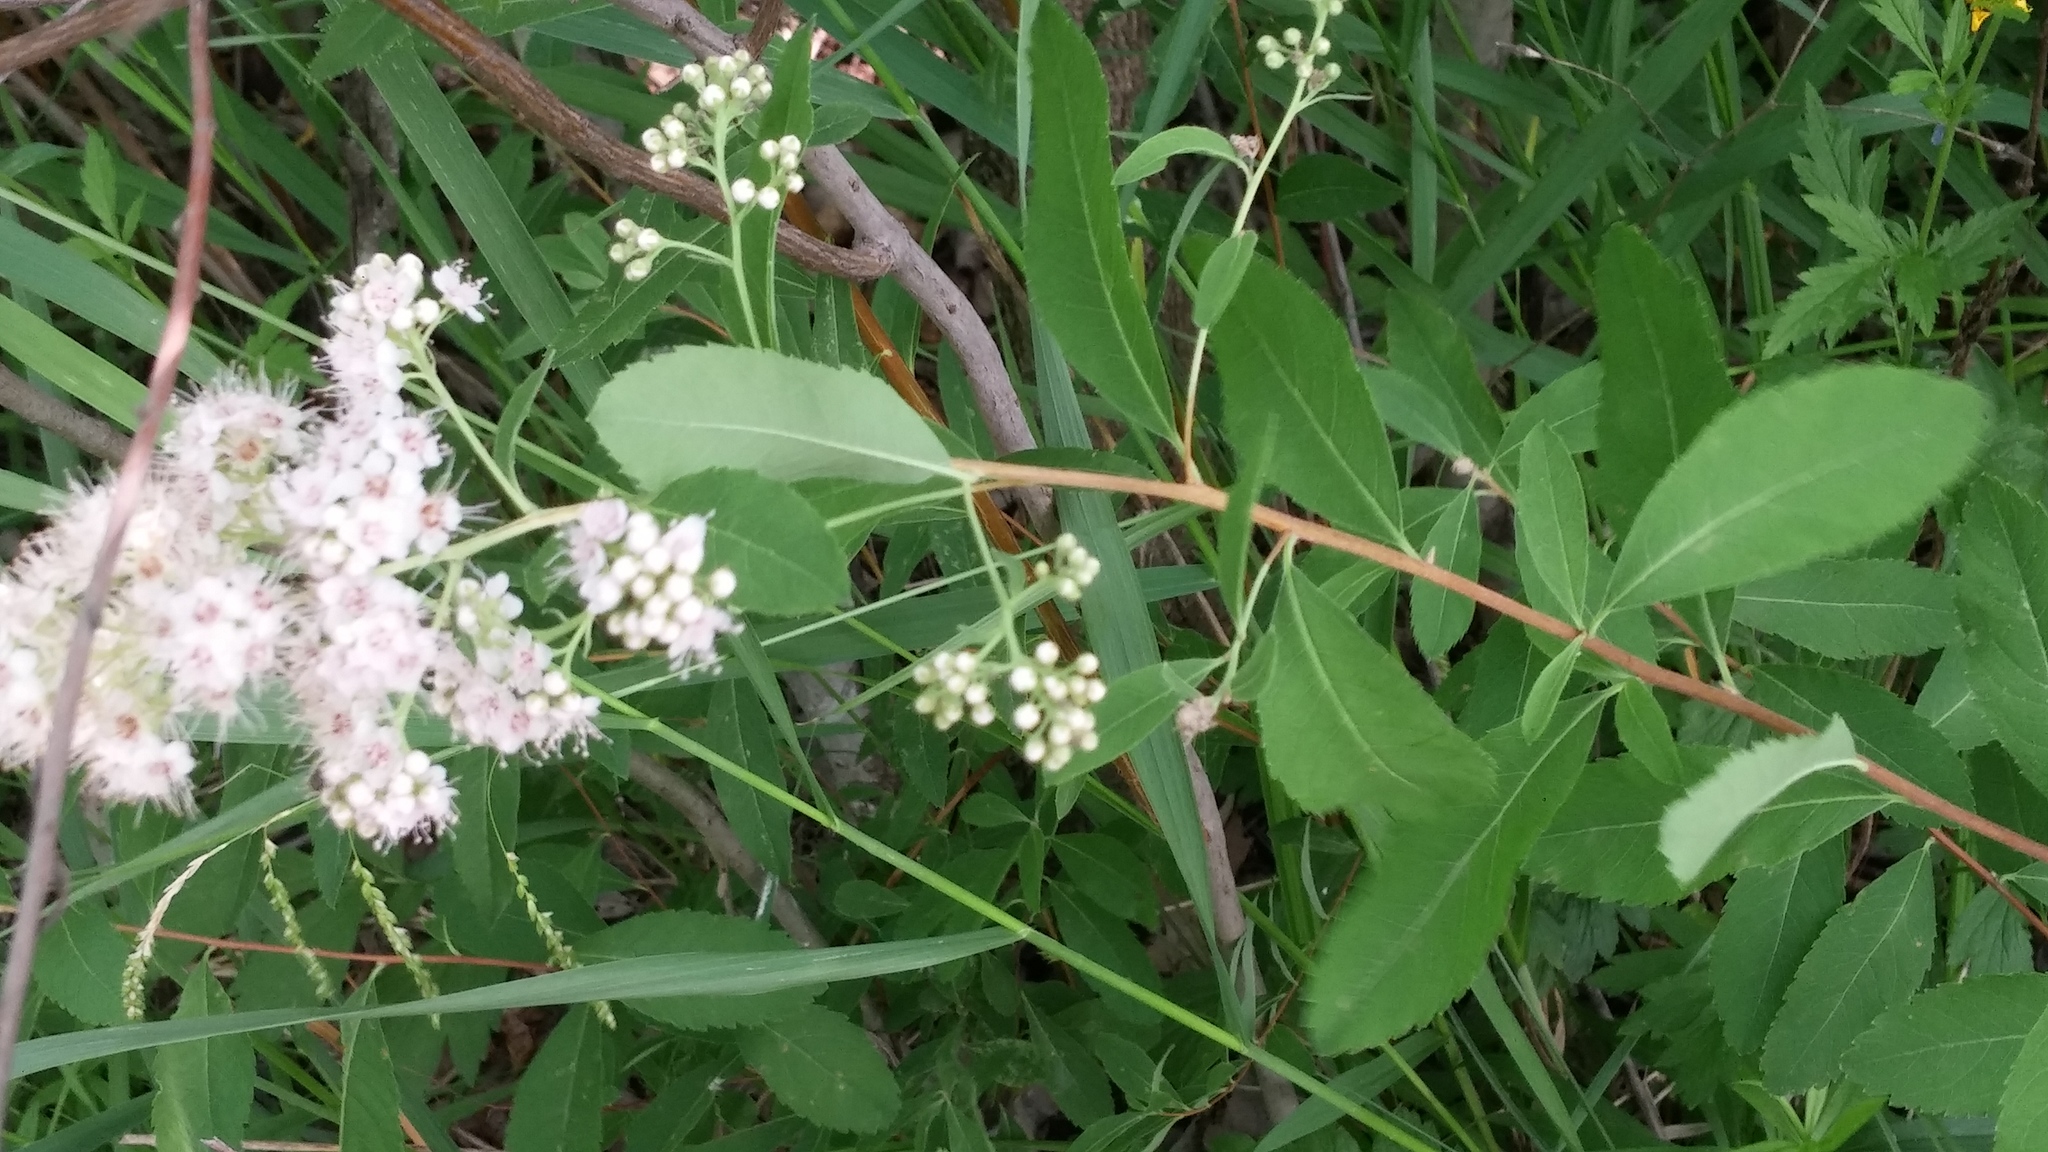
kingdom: Plantae
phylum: Tracheophyta
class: Magnoliopsida
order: Rosales
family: Rosaceae
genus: Spiraea
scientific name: Spiraea alba
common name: Pale bridewort
